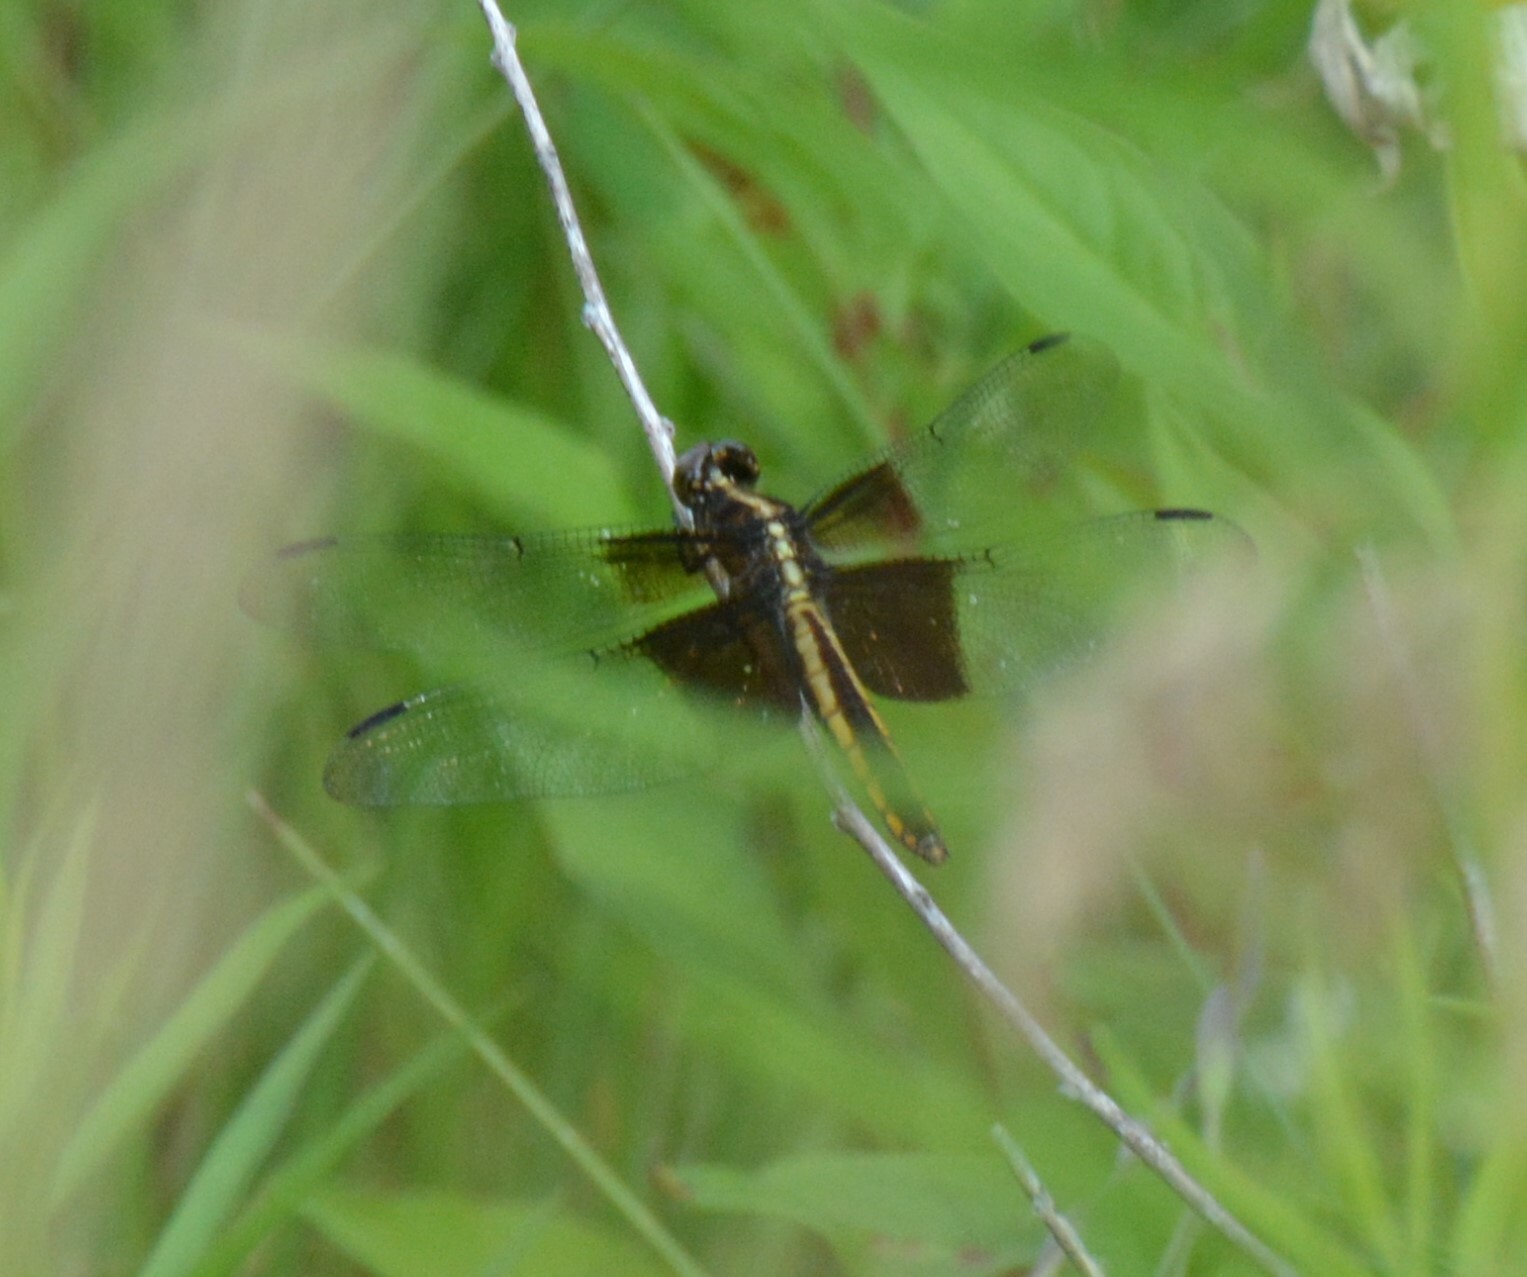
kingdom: Animalia
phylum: Arthropoda
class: Insecta
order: Odonata
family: Libellulidae
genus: Libellula
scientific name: Libellula luctuosa
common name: Widow skimmer
